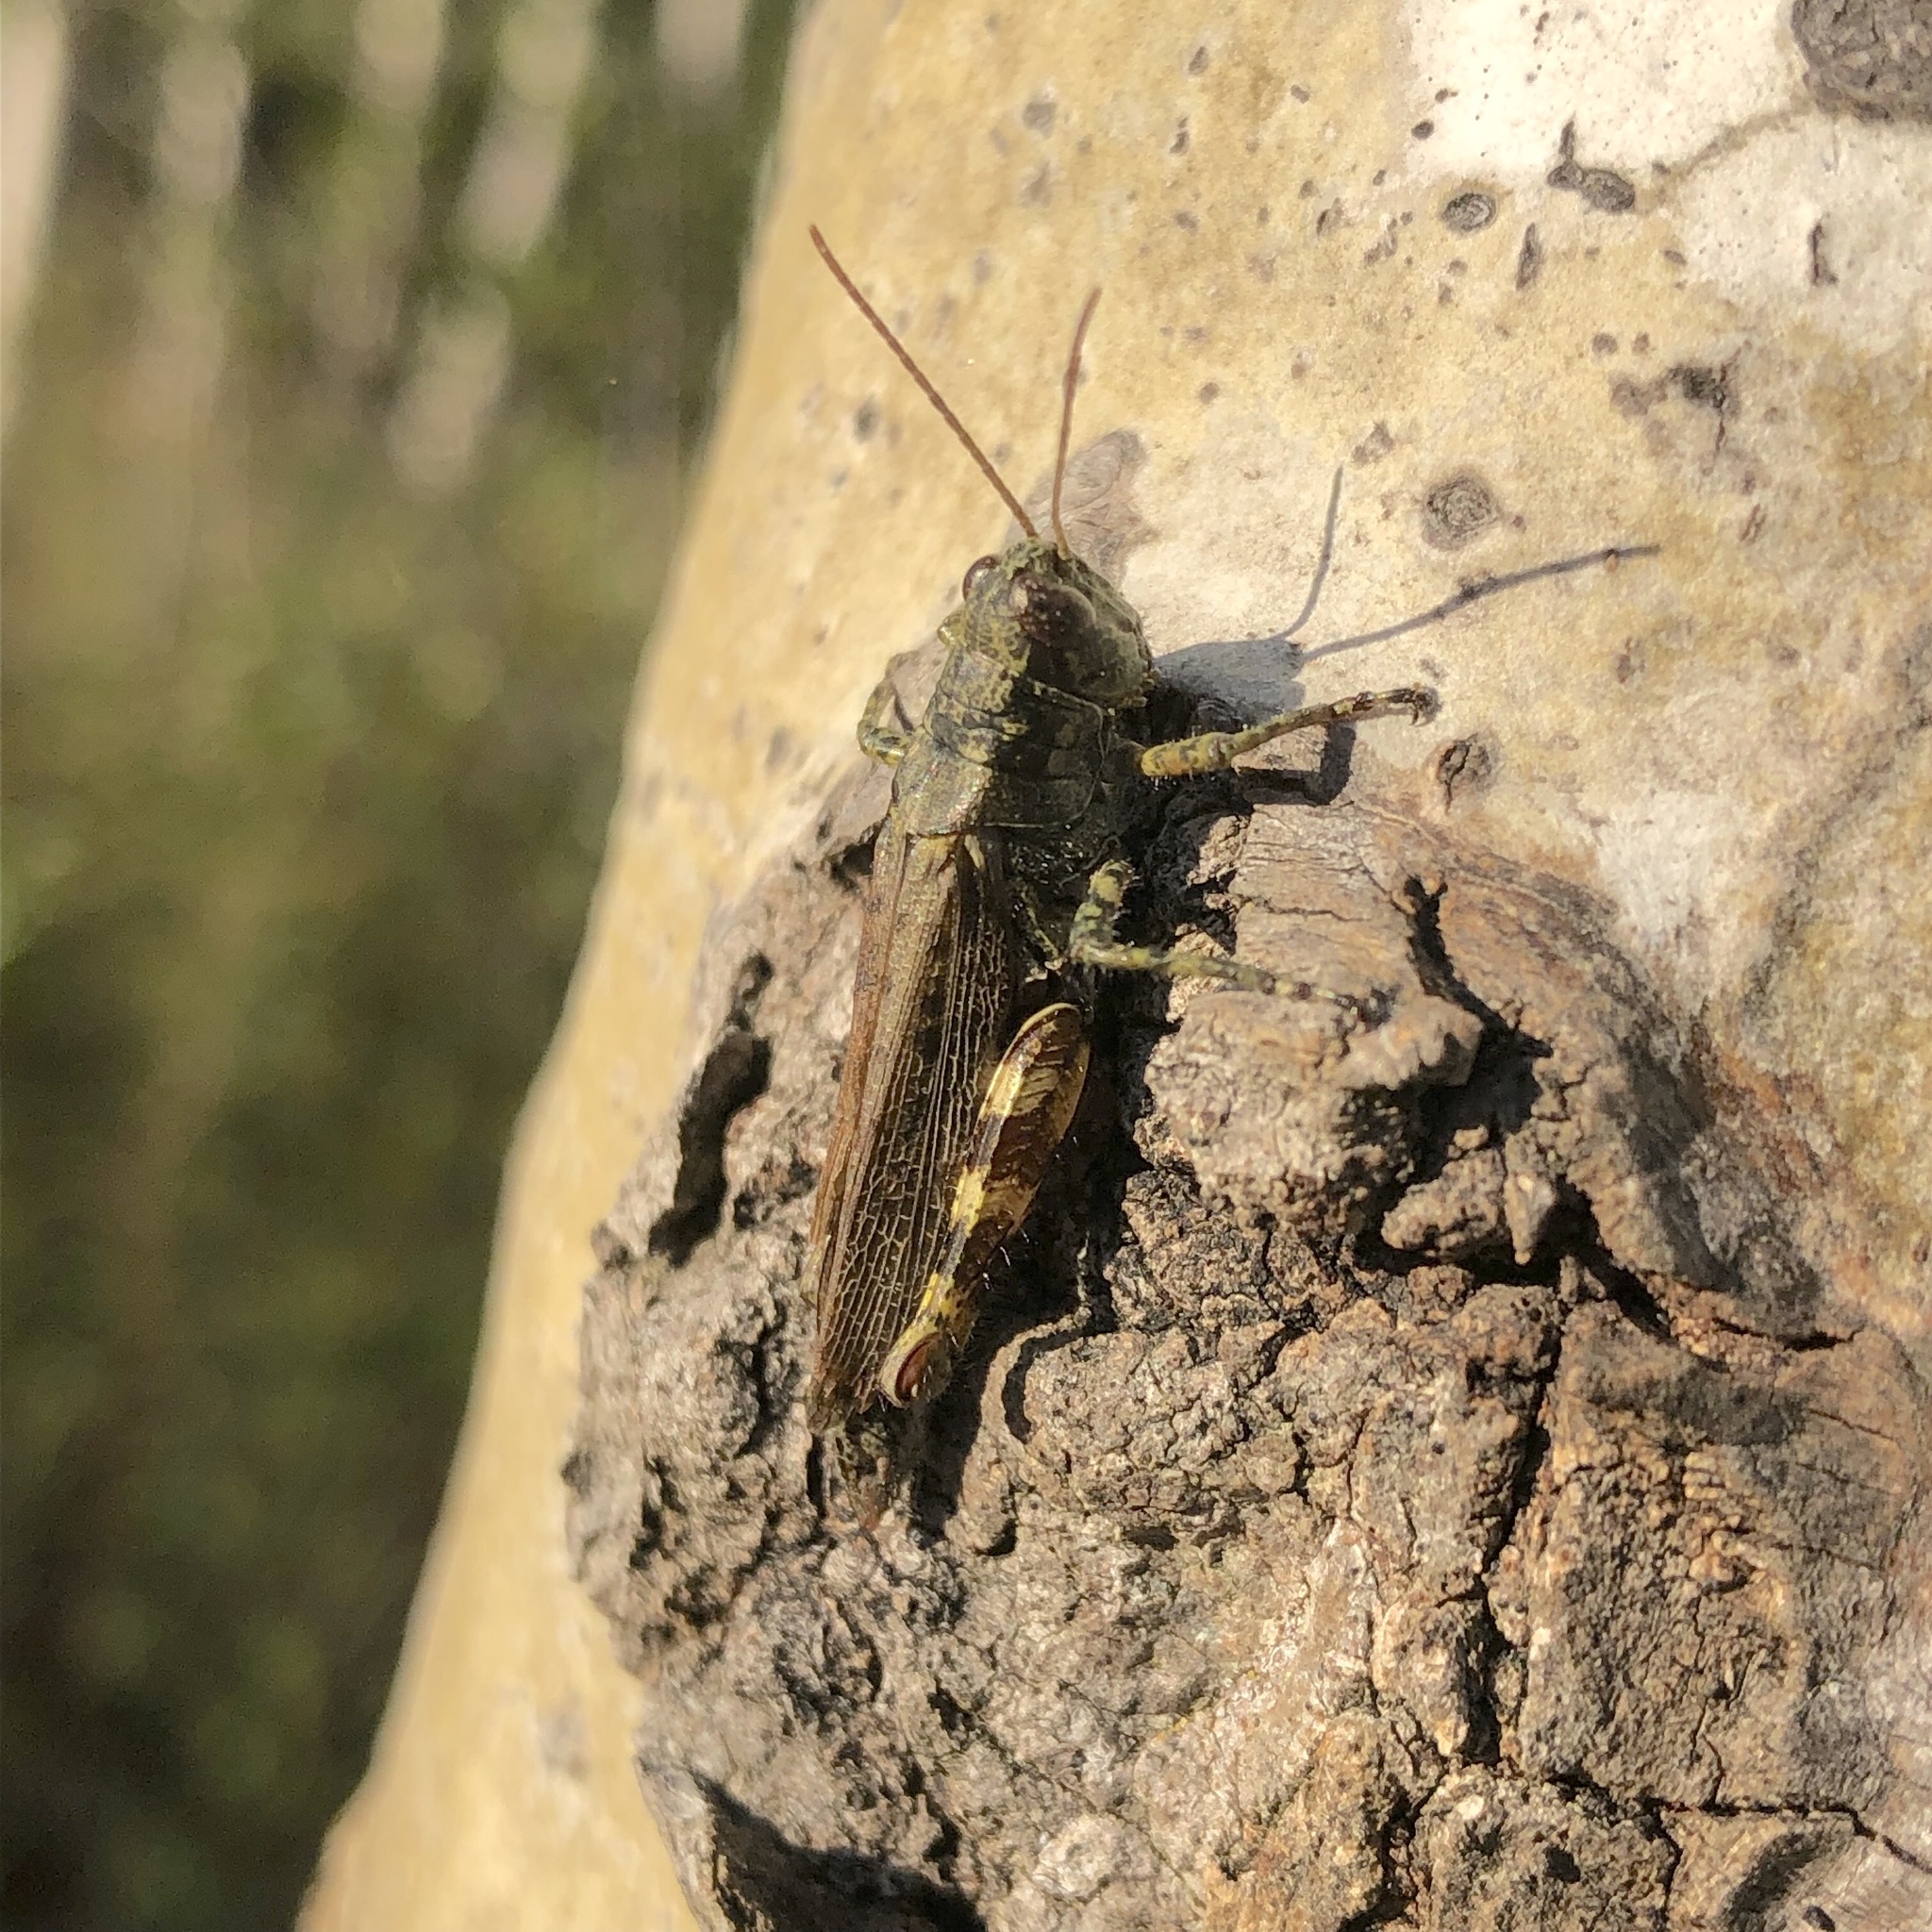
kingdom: Animalia
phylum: Arthropoda
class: Insecta
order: Orthoptera
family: Acrididae
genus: Melanoplus
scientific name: Melanoplus punctulatus
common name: Pine-tree spur-throat grasshopper
